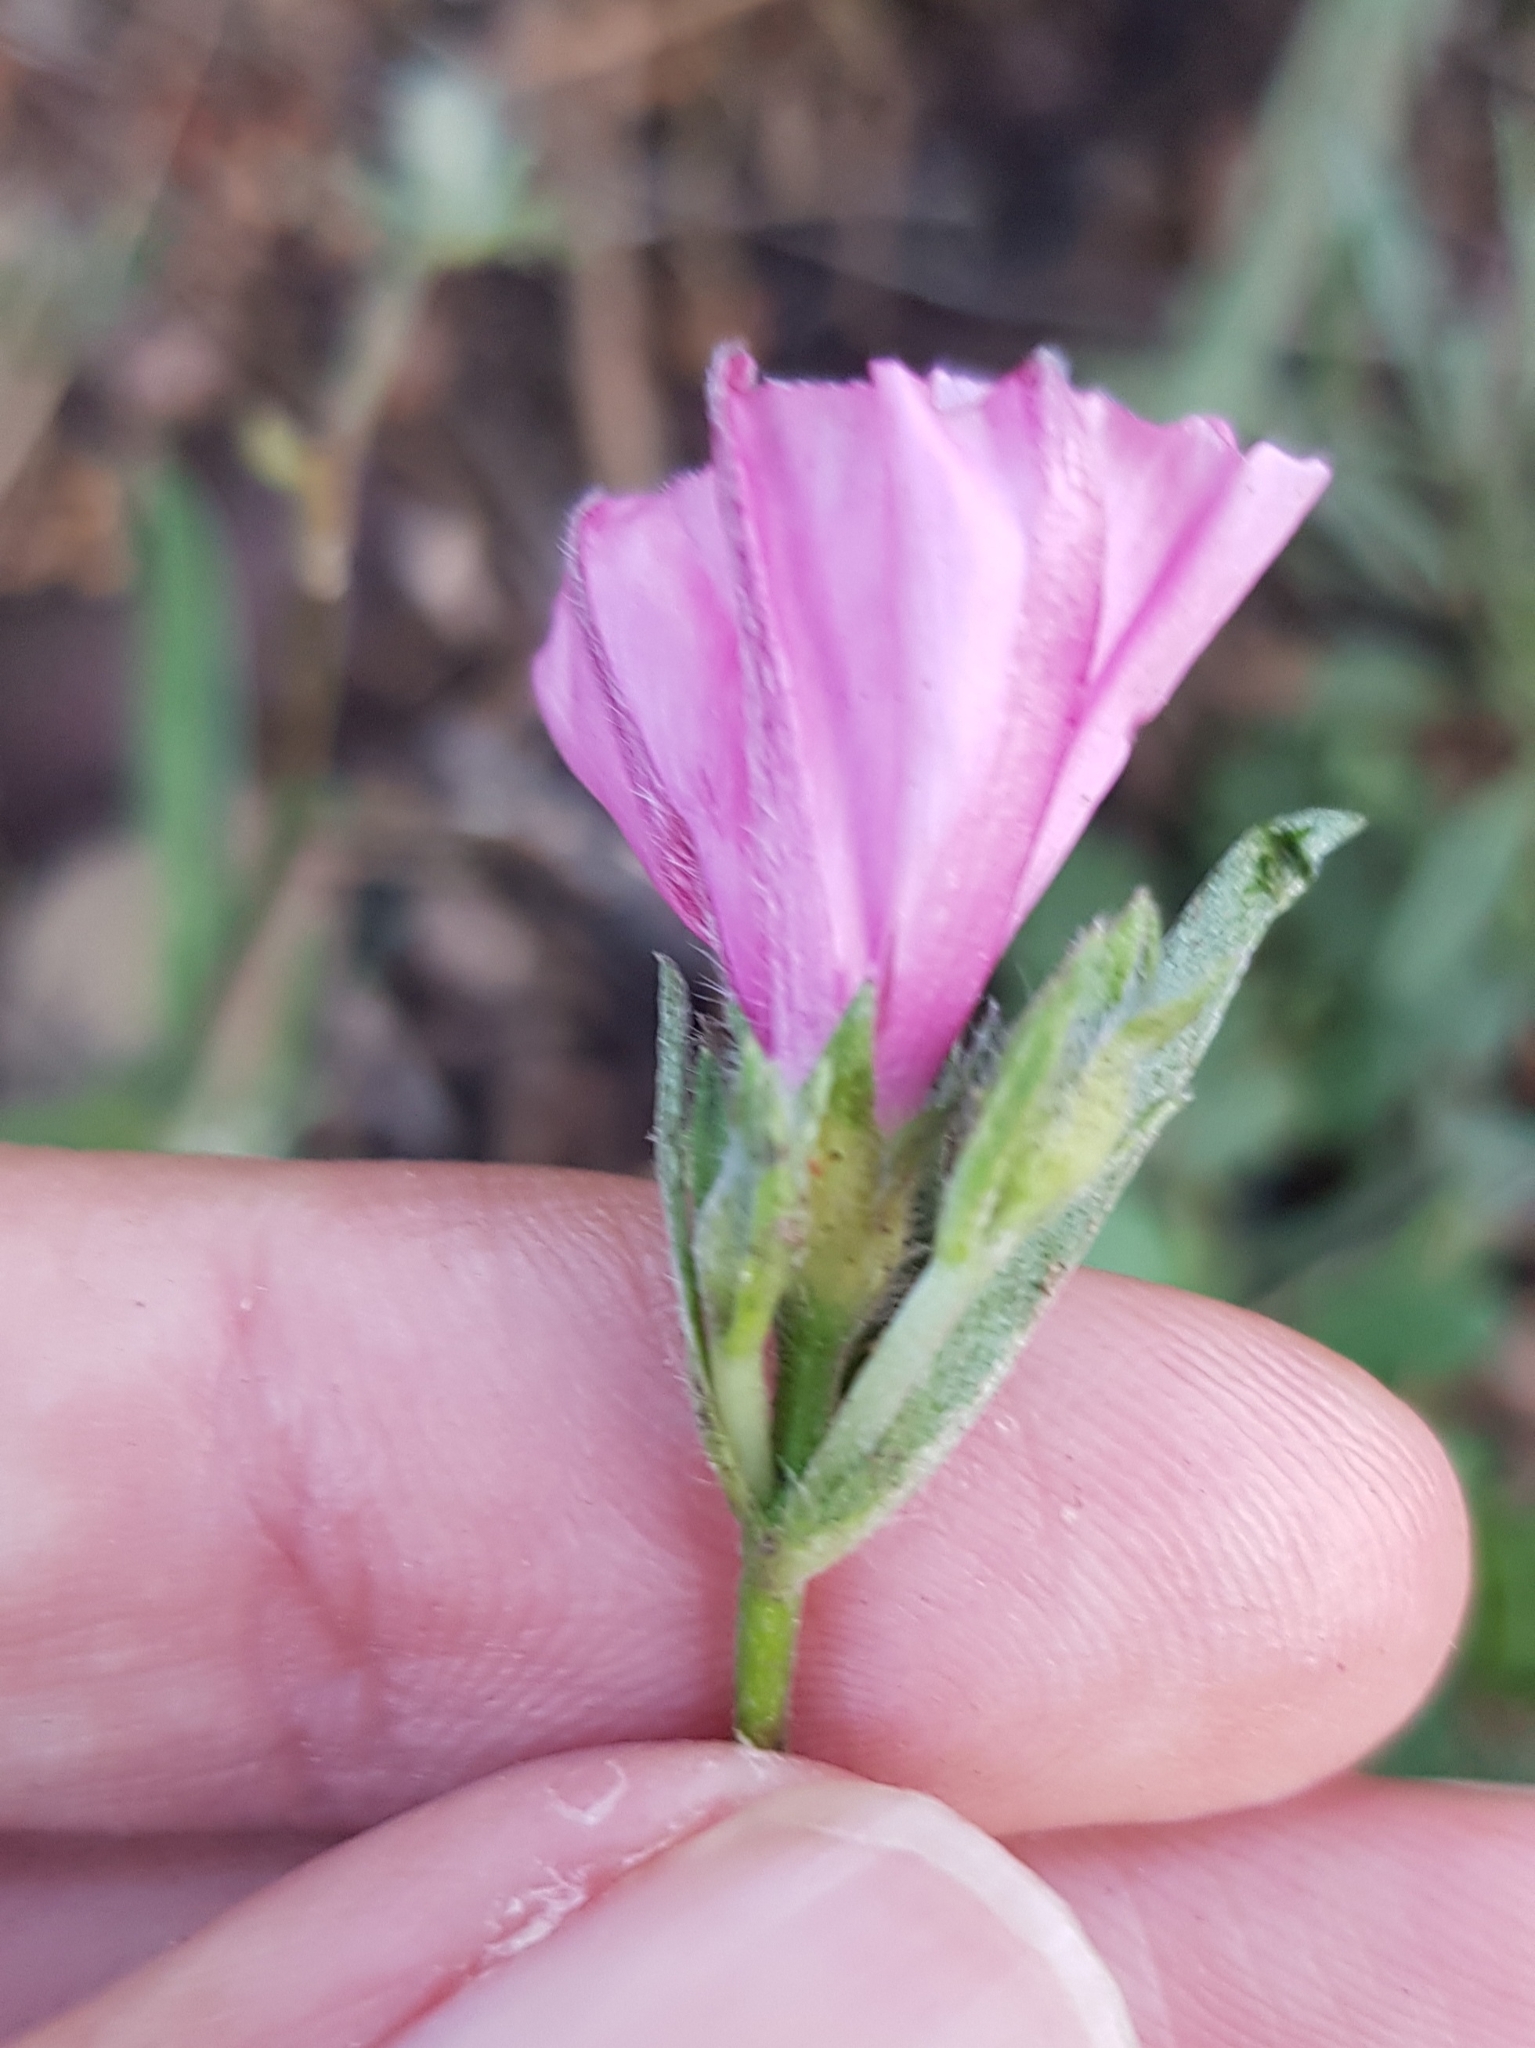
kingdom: Plantae
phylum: Tracheophyta
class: Magnoliopsida
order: Solanales
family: Convolvulaceae
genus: Convolvulus
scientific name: Convolvulus cantabrica
